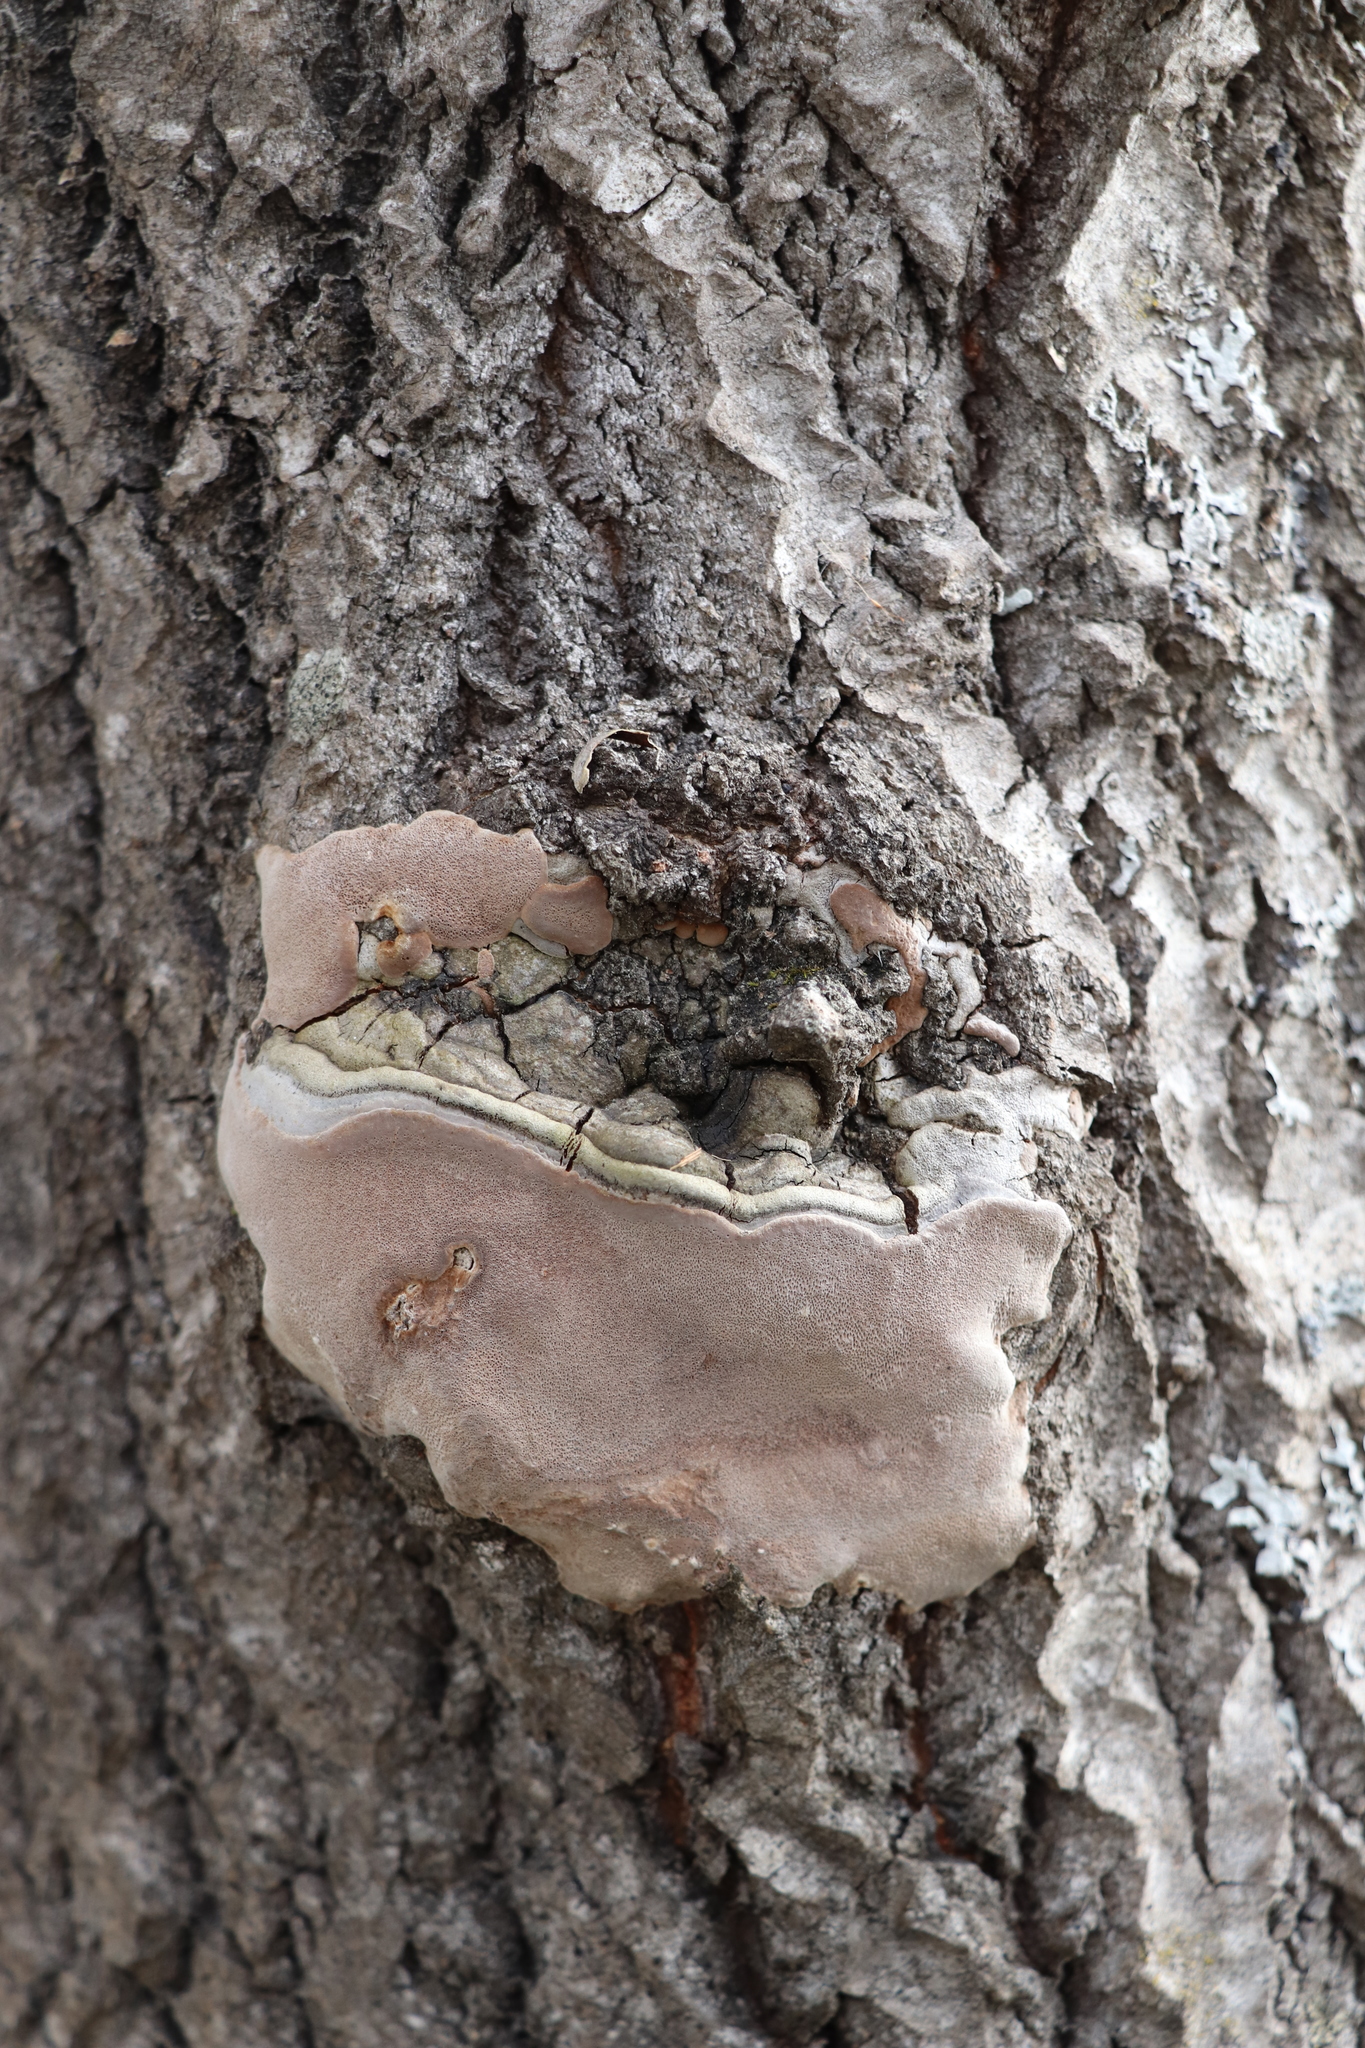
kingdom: Fungi
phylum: Basidiomycota
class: Agaricomycetes
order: Hymenochaetales
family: Hymenochaetaceae
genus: Phellinus
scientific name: Phellinus tremulae
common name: Aspen bracket
